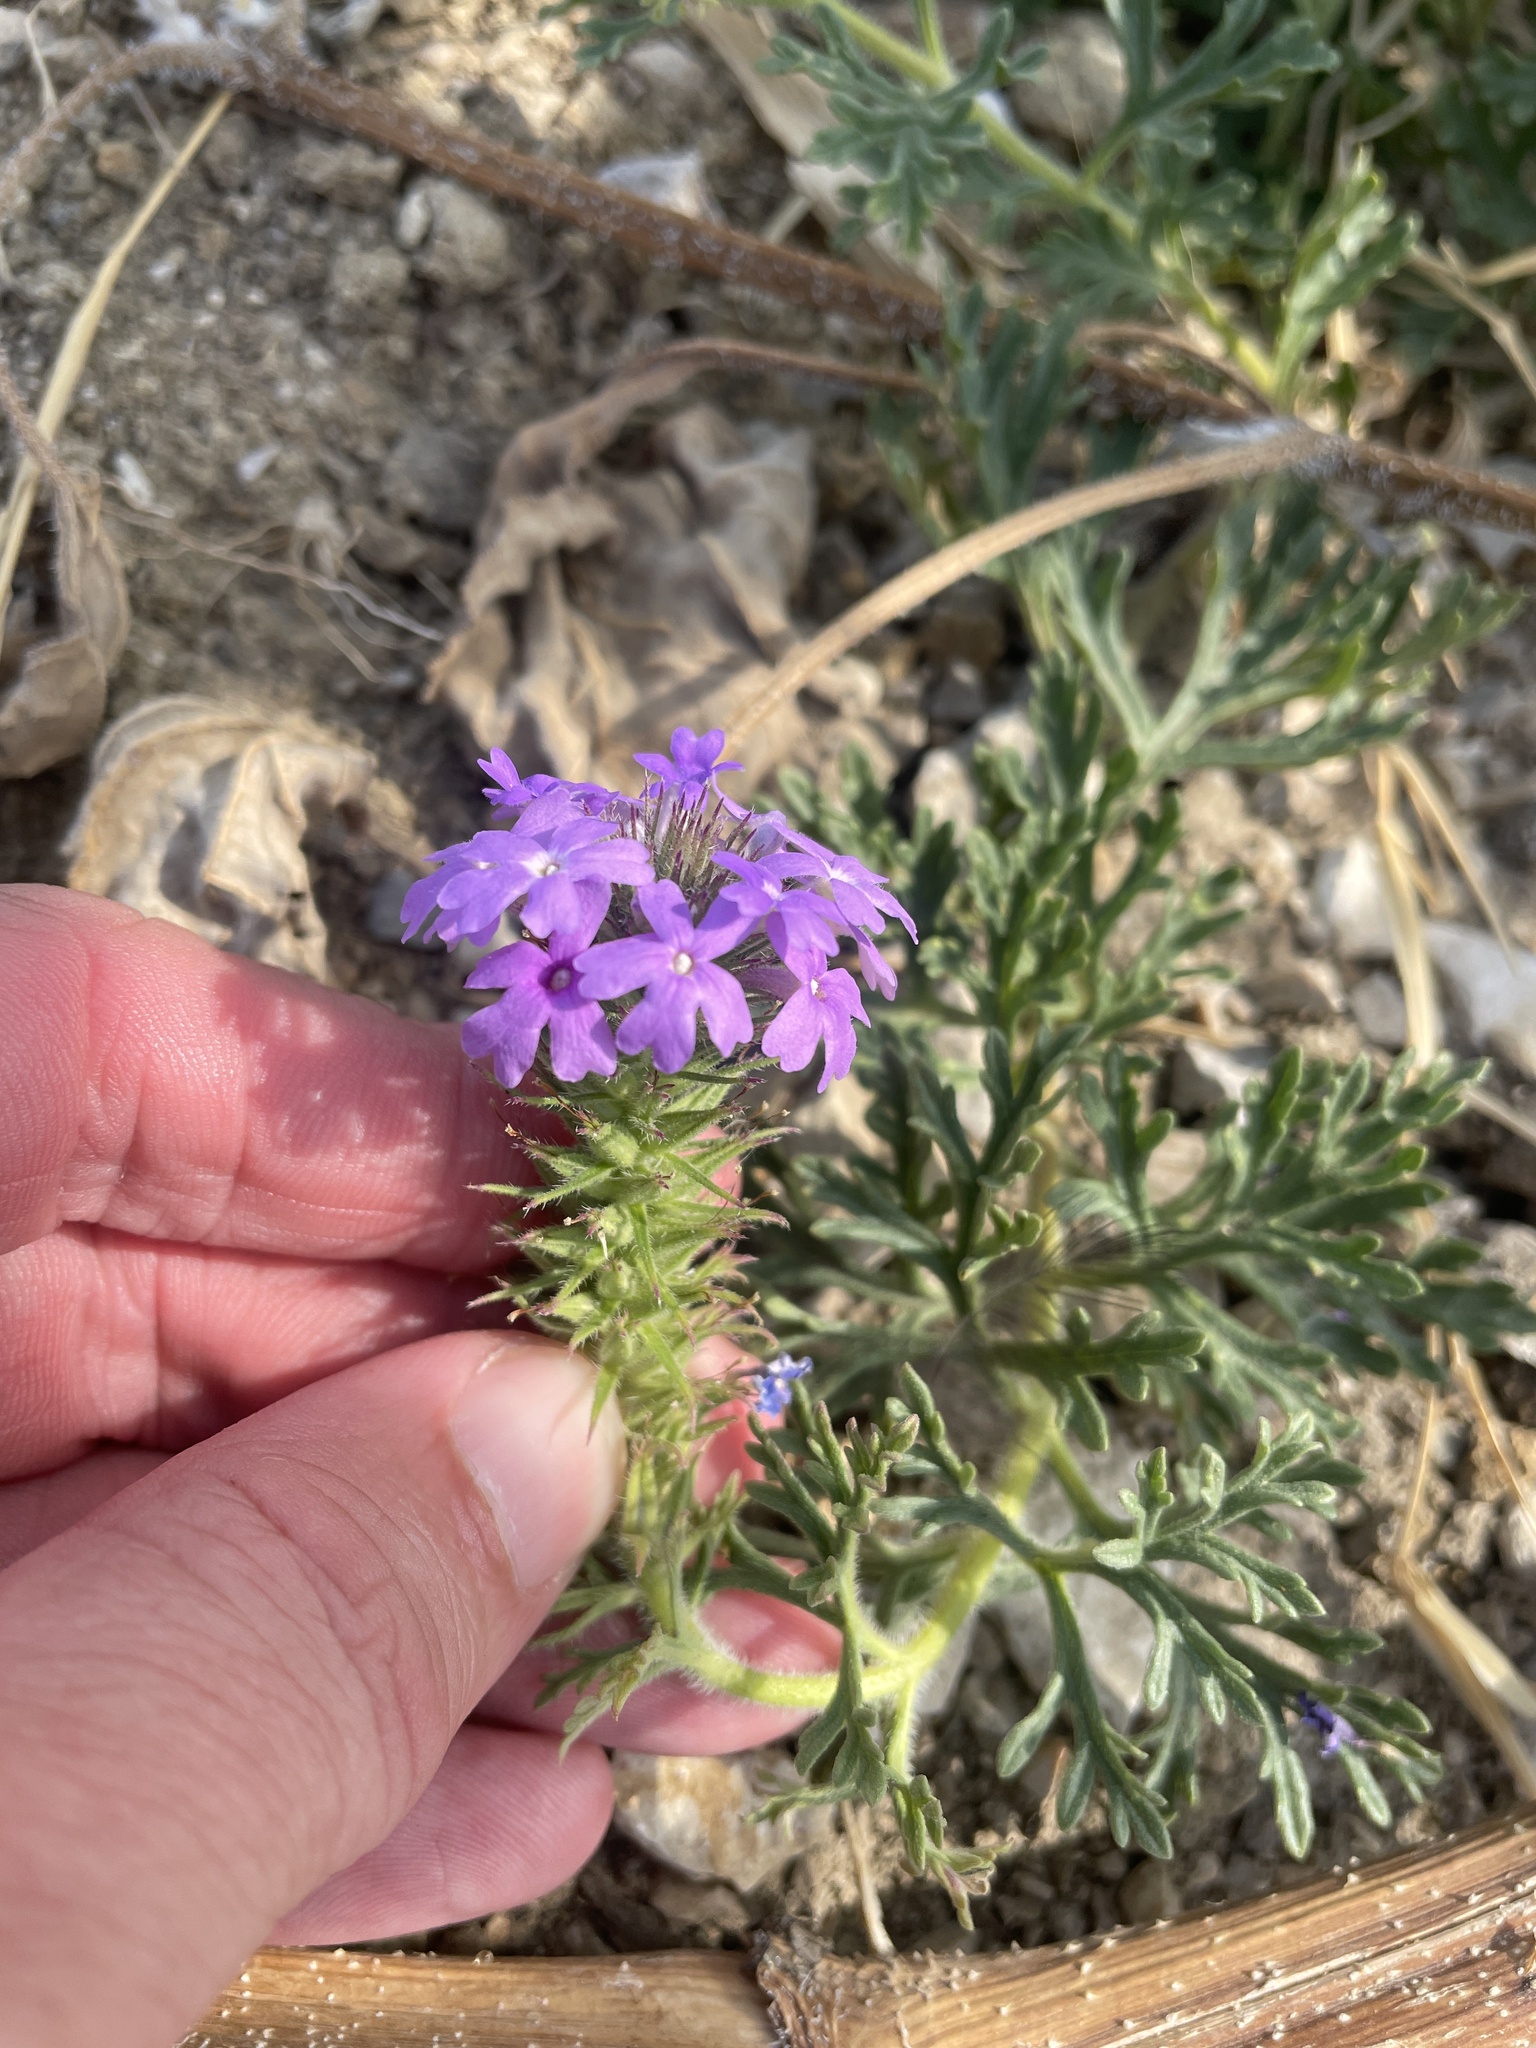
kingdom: Plantae
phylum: Tracheophyta
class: Magnoliopsida
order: Lamiales
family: Verbenaceae
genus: Verbena
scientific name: Verbena bipinnatifida
